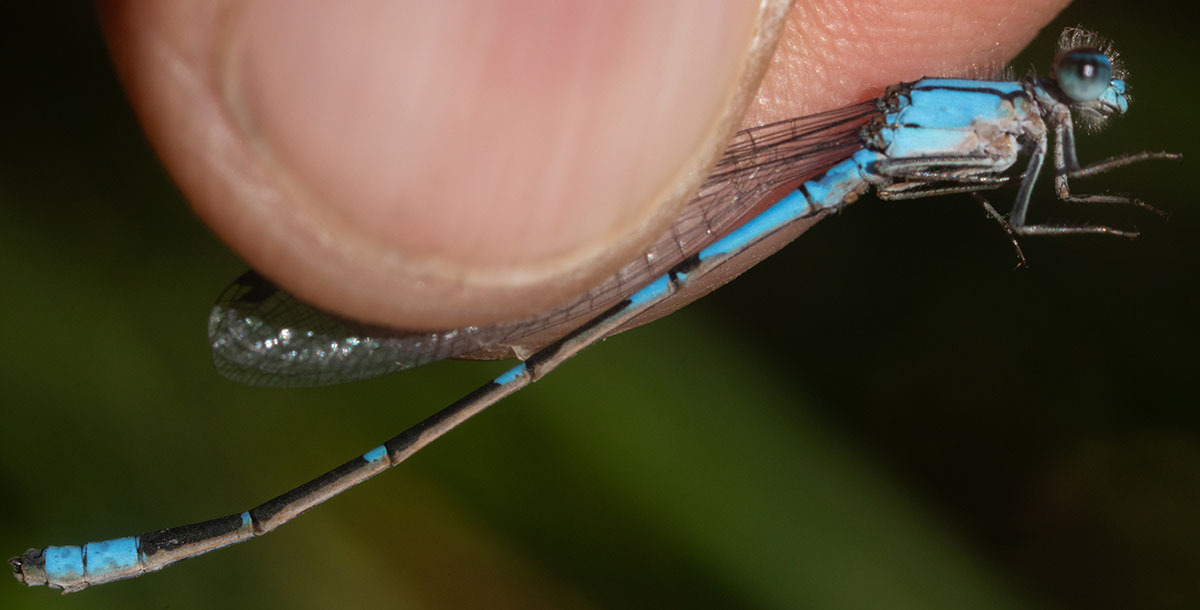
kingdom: Animalia
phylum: Arthropoda
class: Insecta
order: Odonata
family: Coenagrionidae
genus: Enallagma
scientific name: Enallagma praevarum
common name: Arroyo bluet
